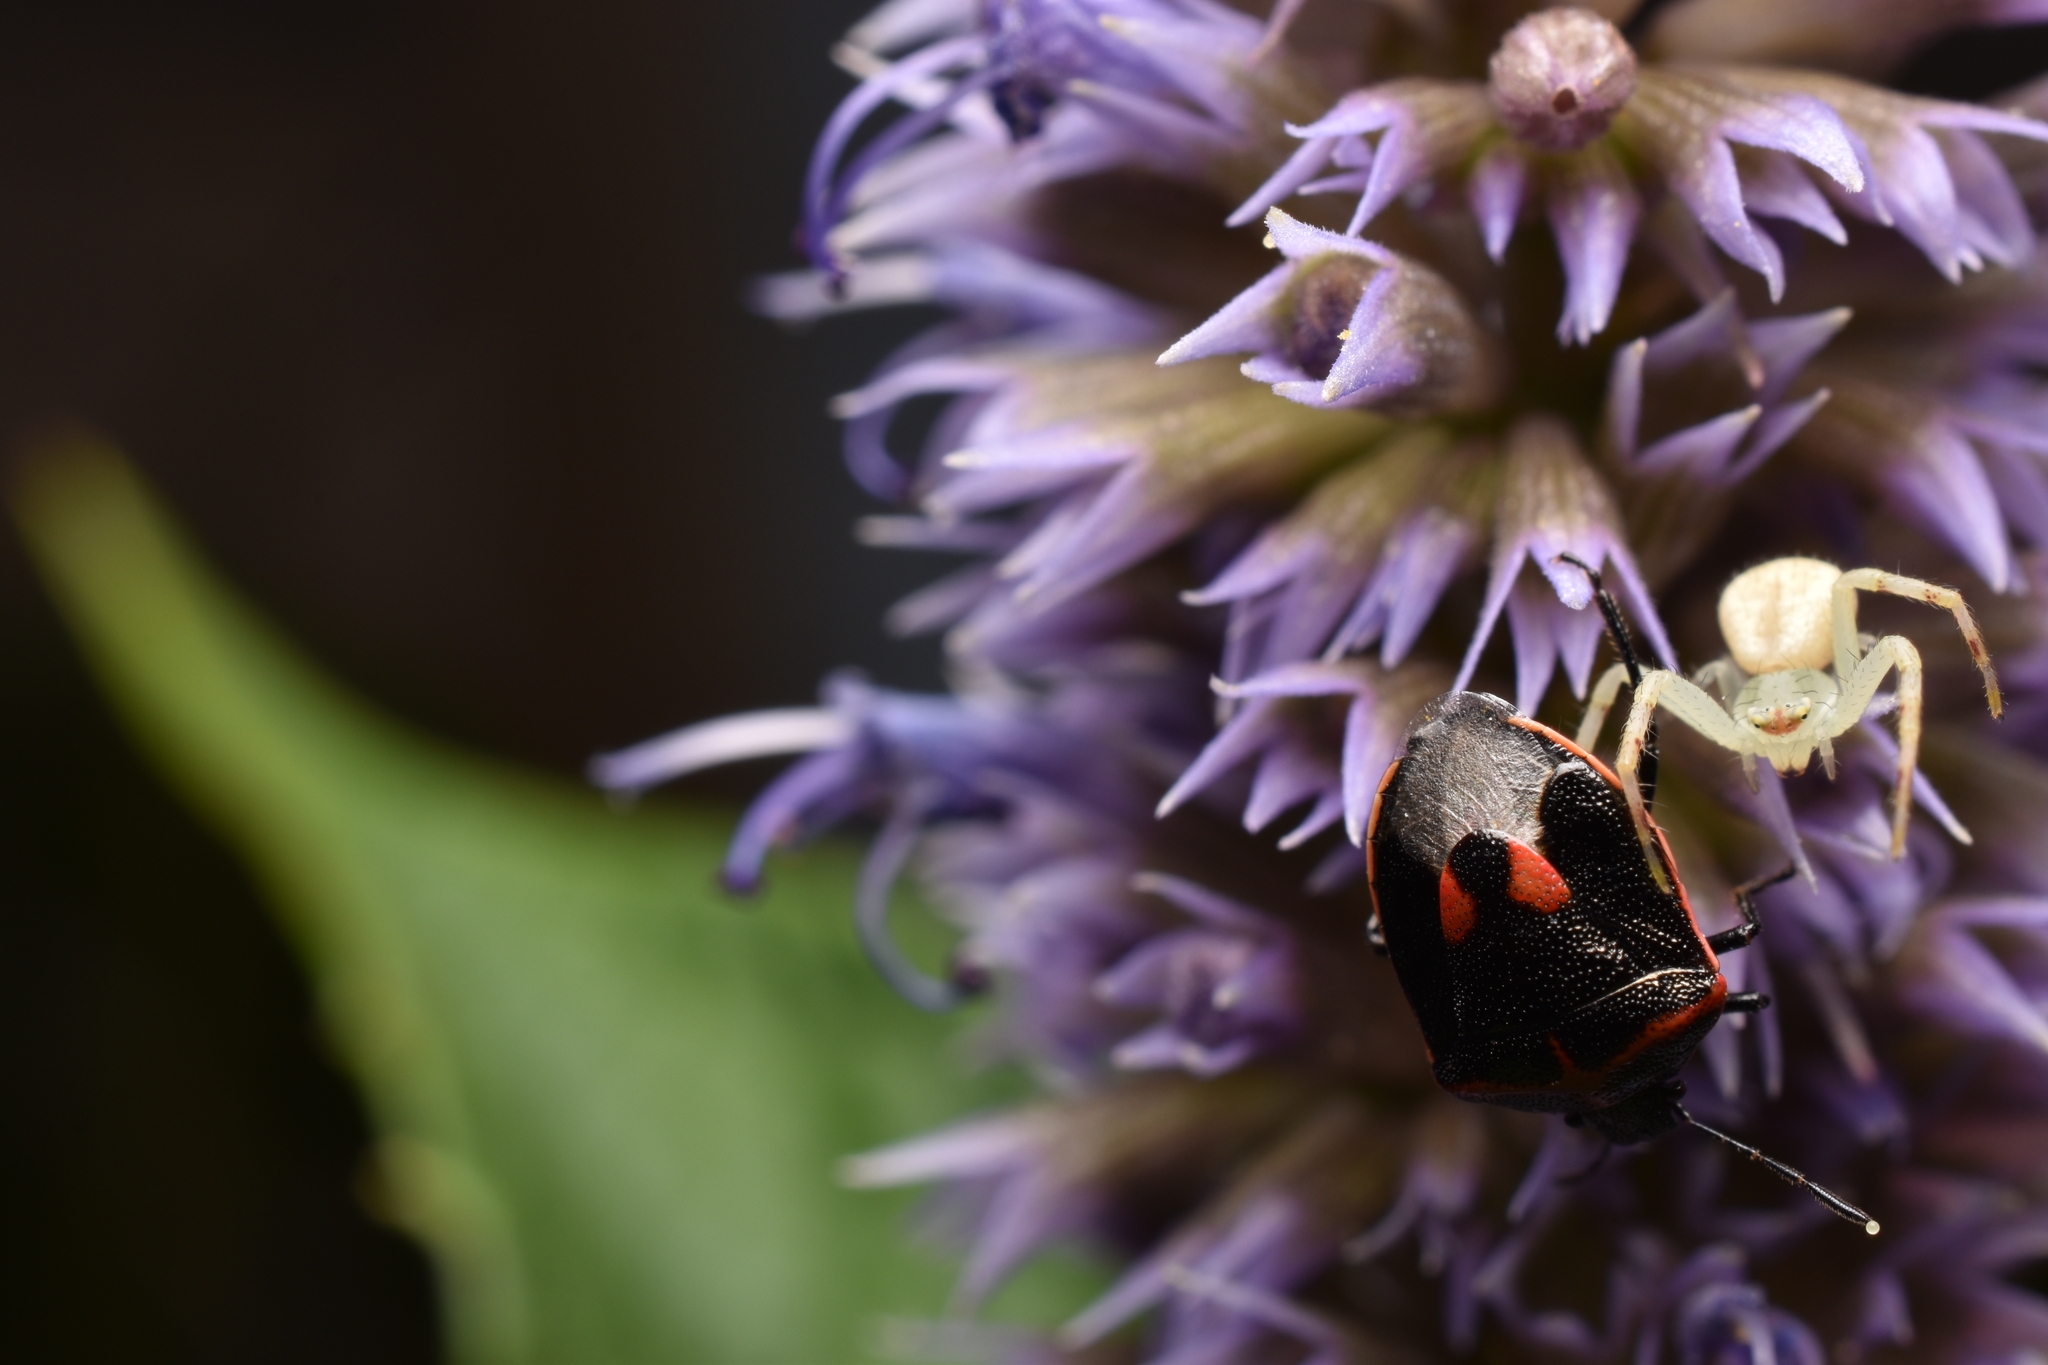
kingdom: Animalia
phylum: Arthropoda
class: Insecta
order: Hemiptera
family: Pentatomidae
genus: Cosmopepla
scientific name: Cosmopepla lintneriana
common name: Twice-stabbed stink bug
